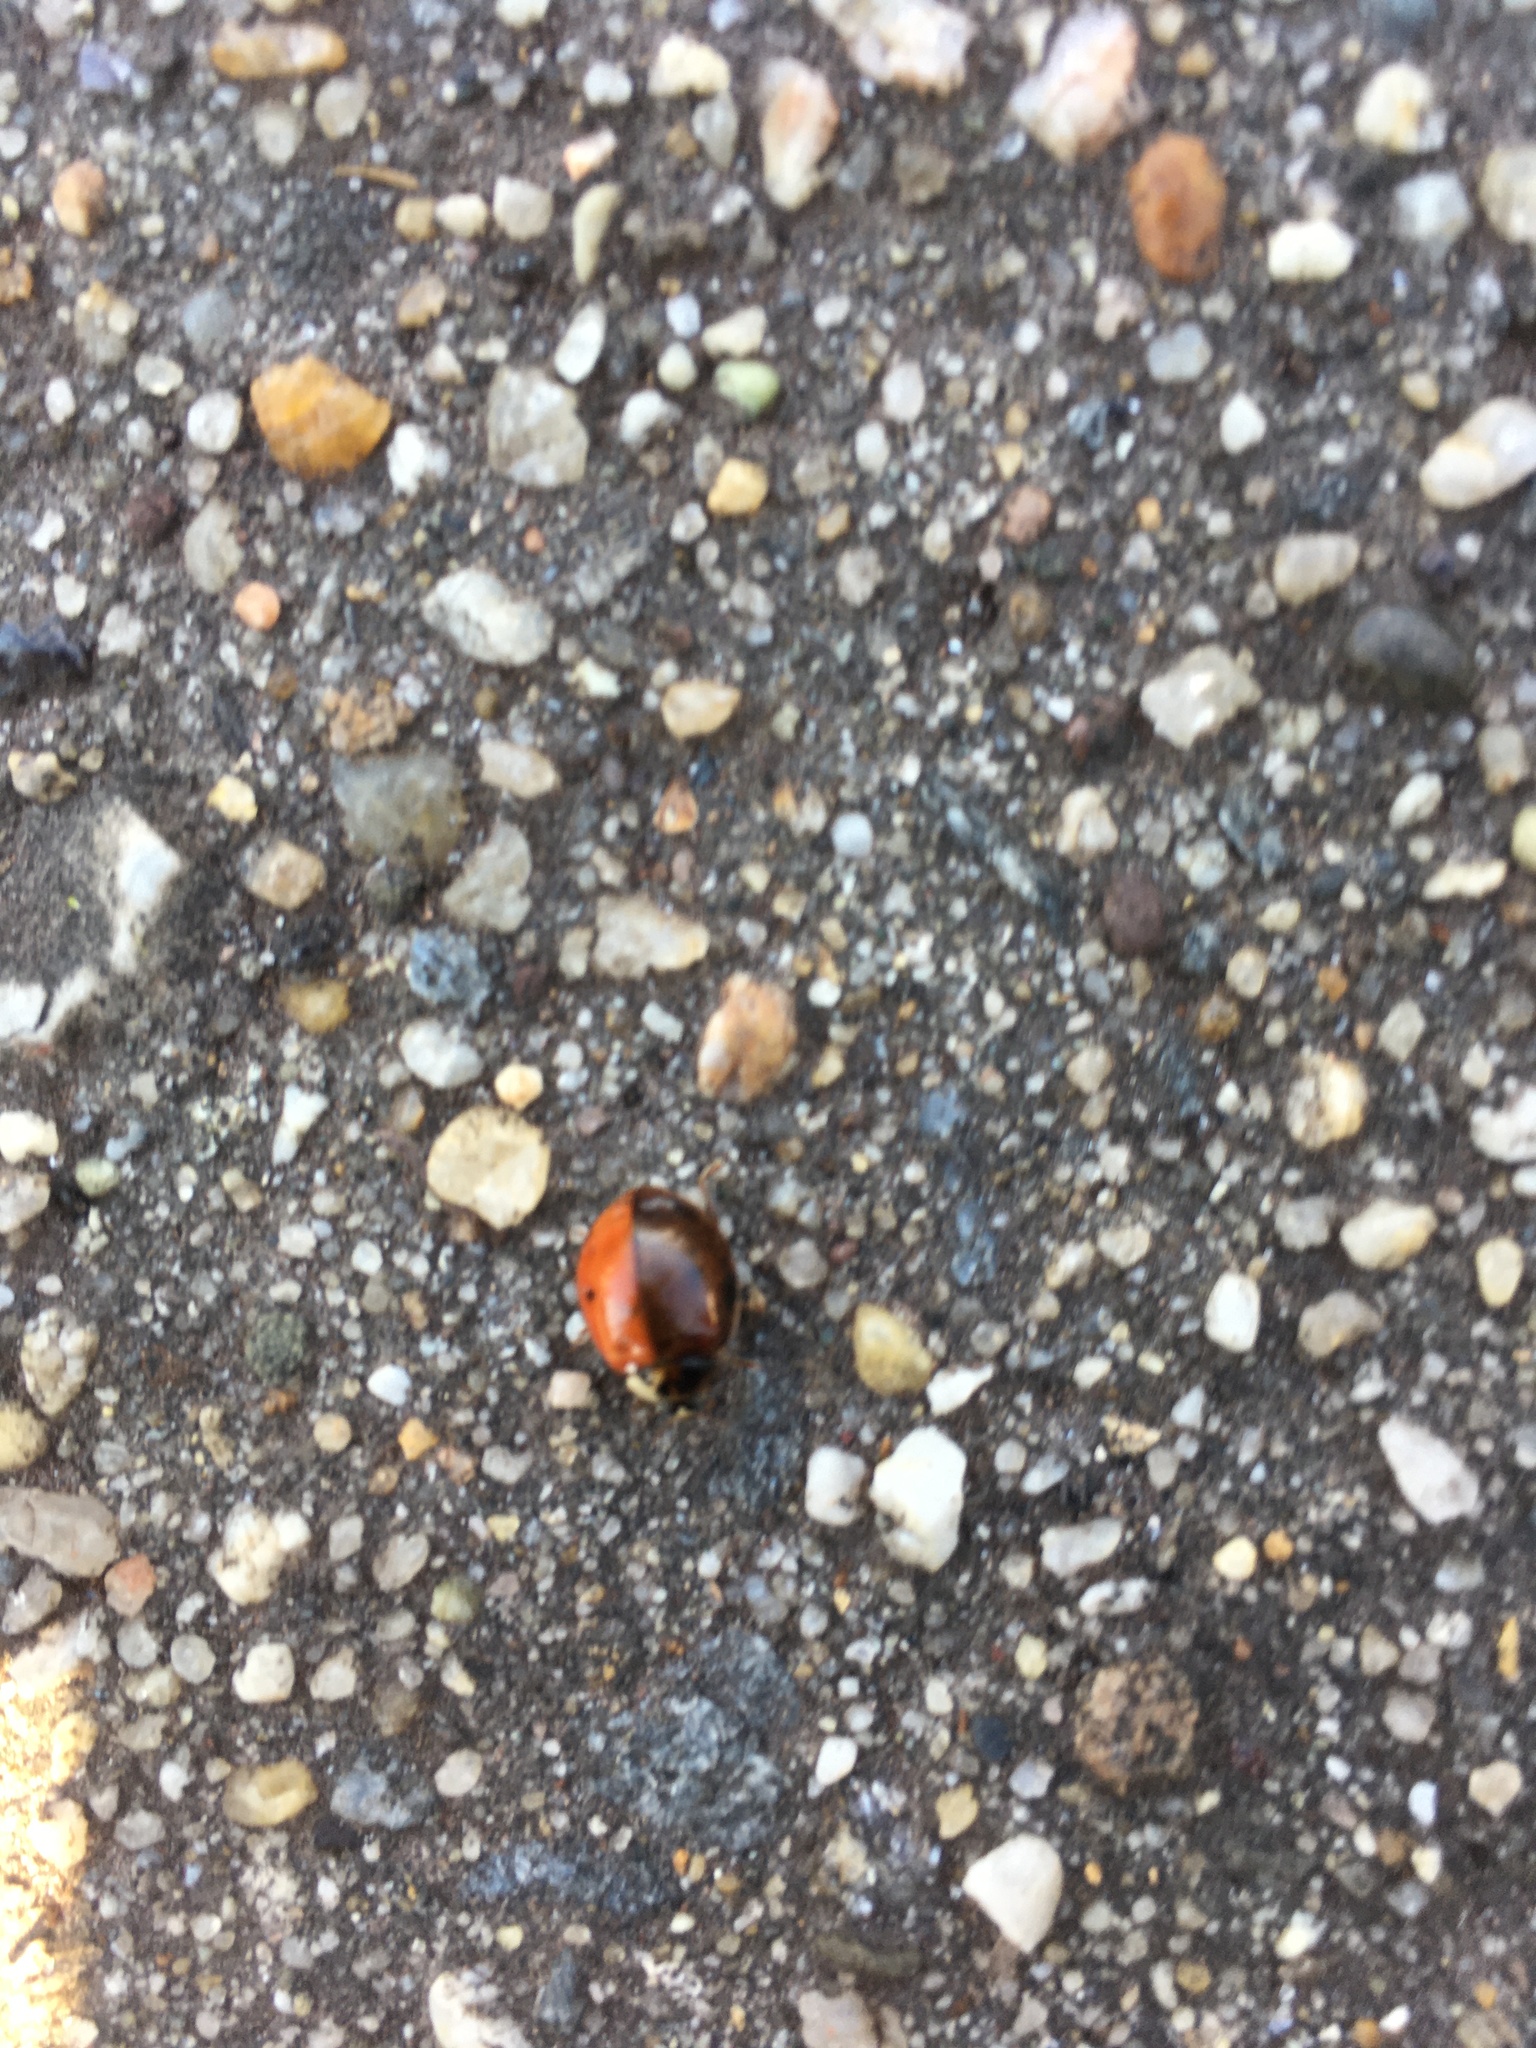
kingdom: Animalia
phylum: Arthropoda
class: Insecta
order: Coleoptera
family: Coccinellidae
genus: Harmonia
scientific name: Harmonia axyridis
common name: Harlequin ladybird
